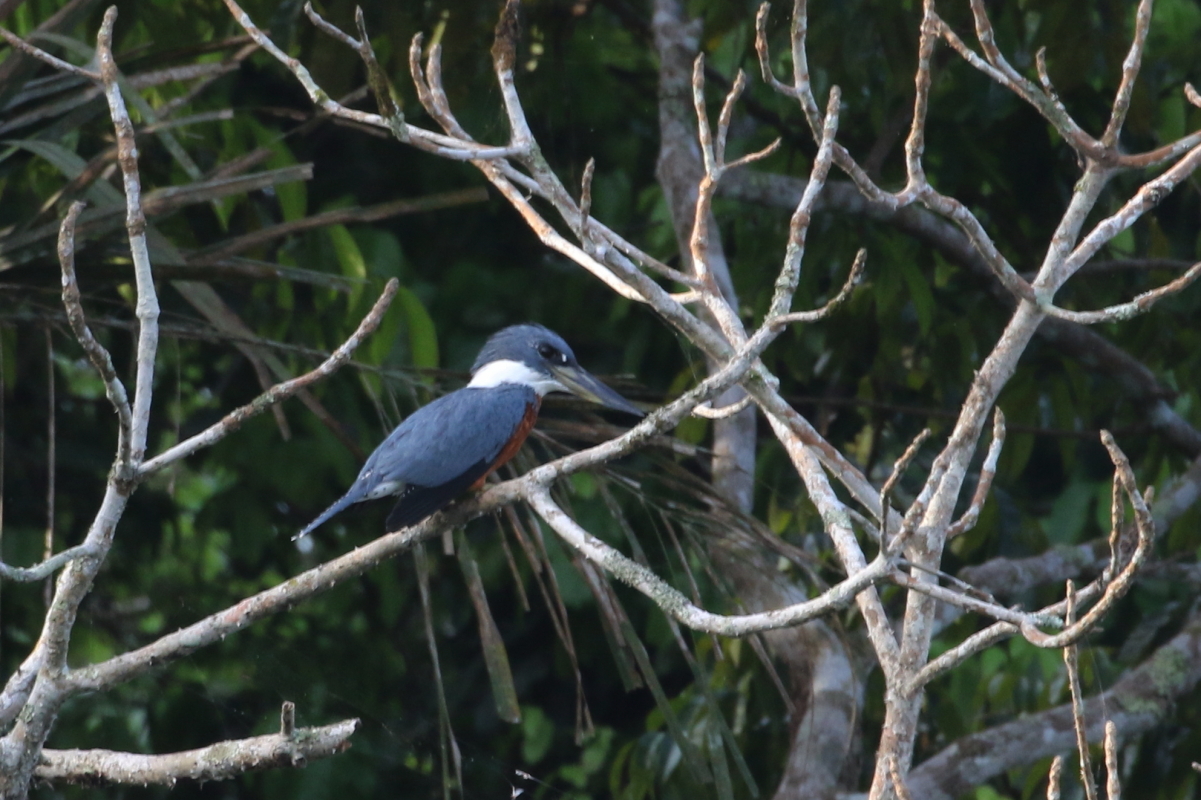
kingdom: Animalia
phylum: Chordata
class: Aves
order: Coraciiformes
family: Alcedinidae
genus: Megaceryle
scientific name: Megaceryle torquata
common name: Ringed kingfisher
